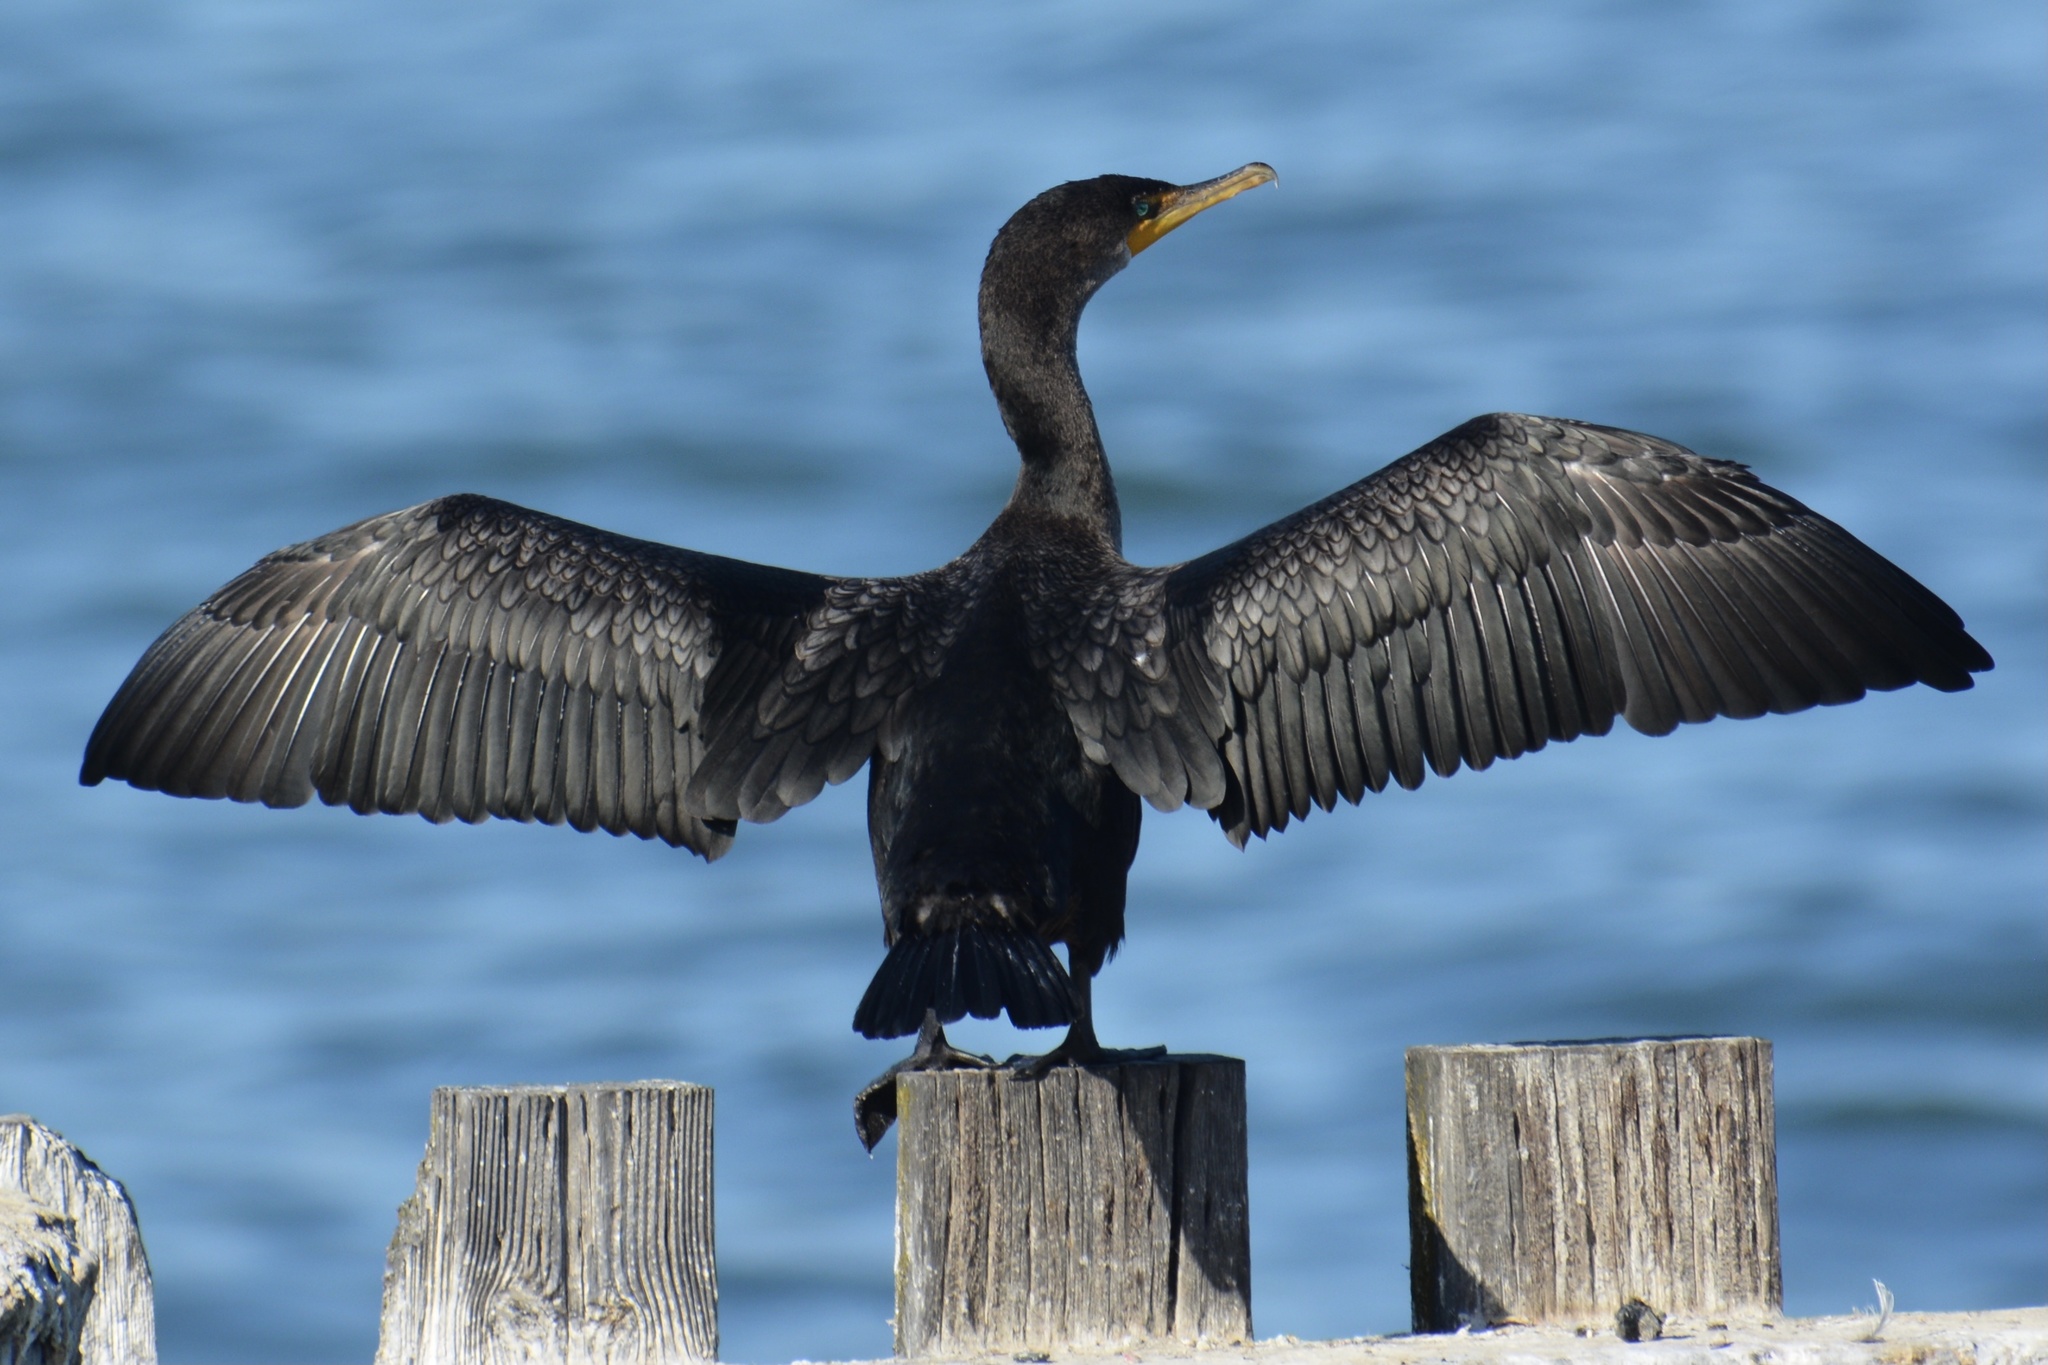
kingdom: Animalia
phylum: Chordata
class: Aves
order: Suliformes
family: Phalacrocoracidae
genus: Phalacrocorax
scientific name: Phalacrocorax auritus
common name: Double-crested cormorant
